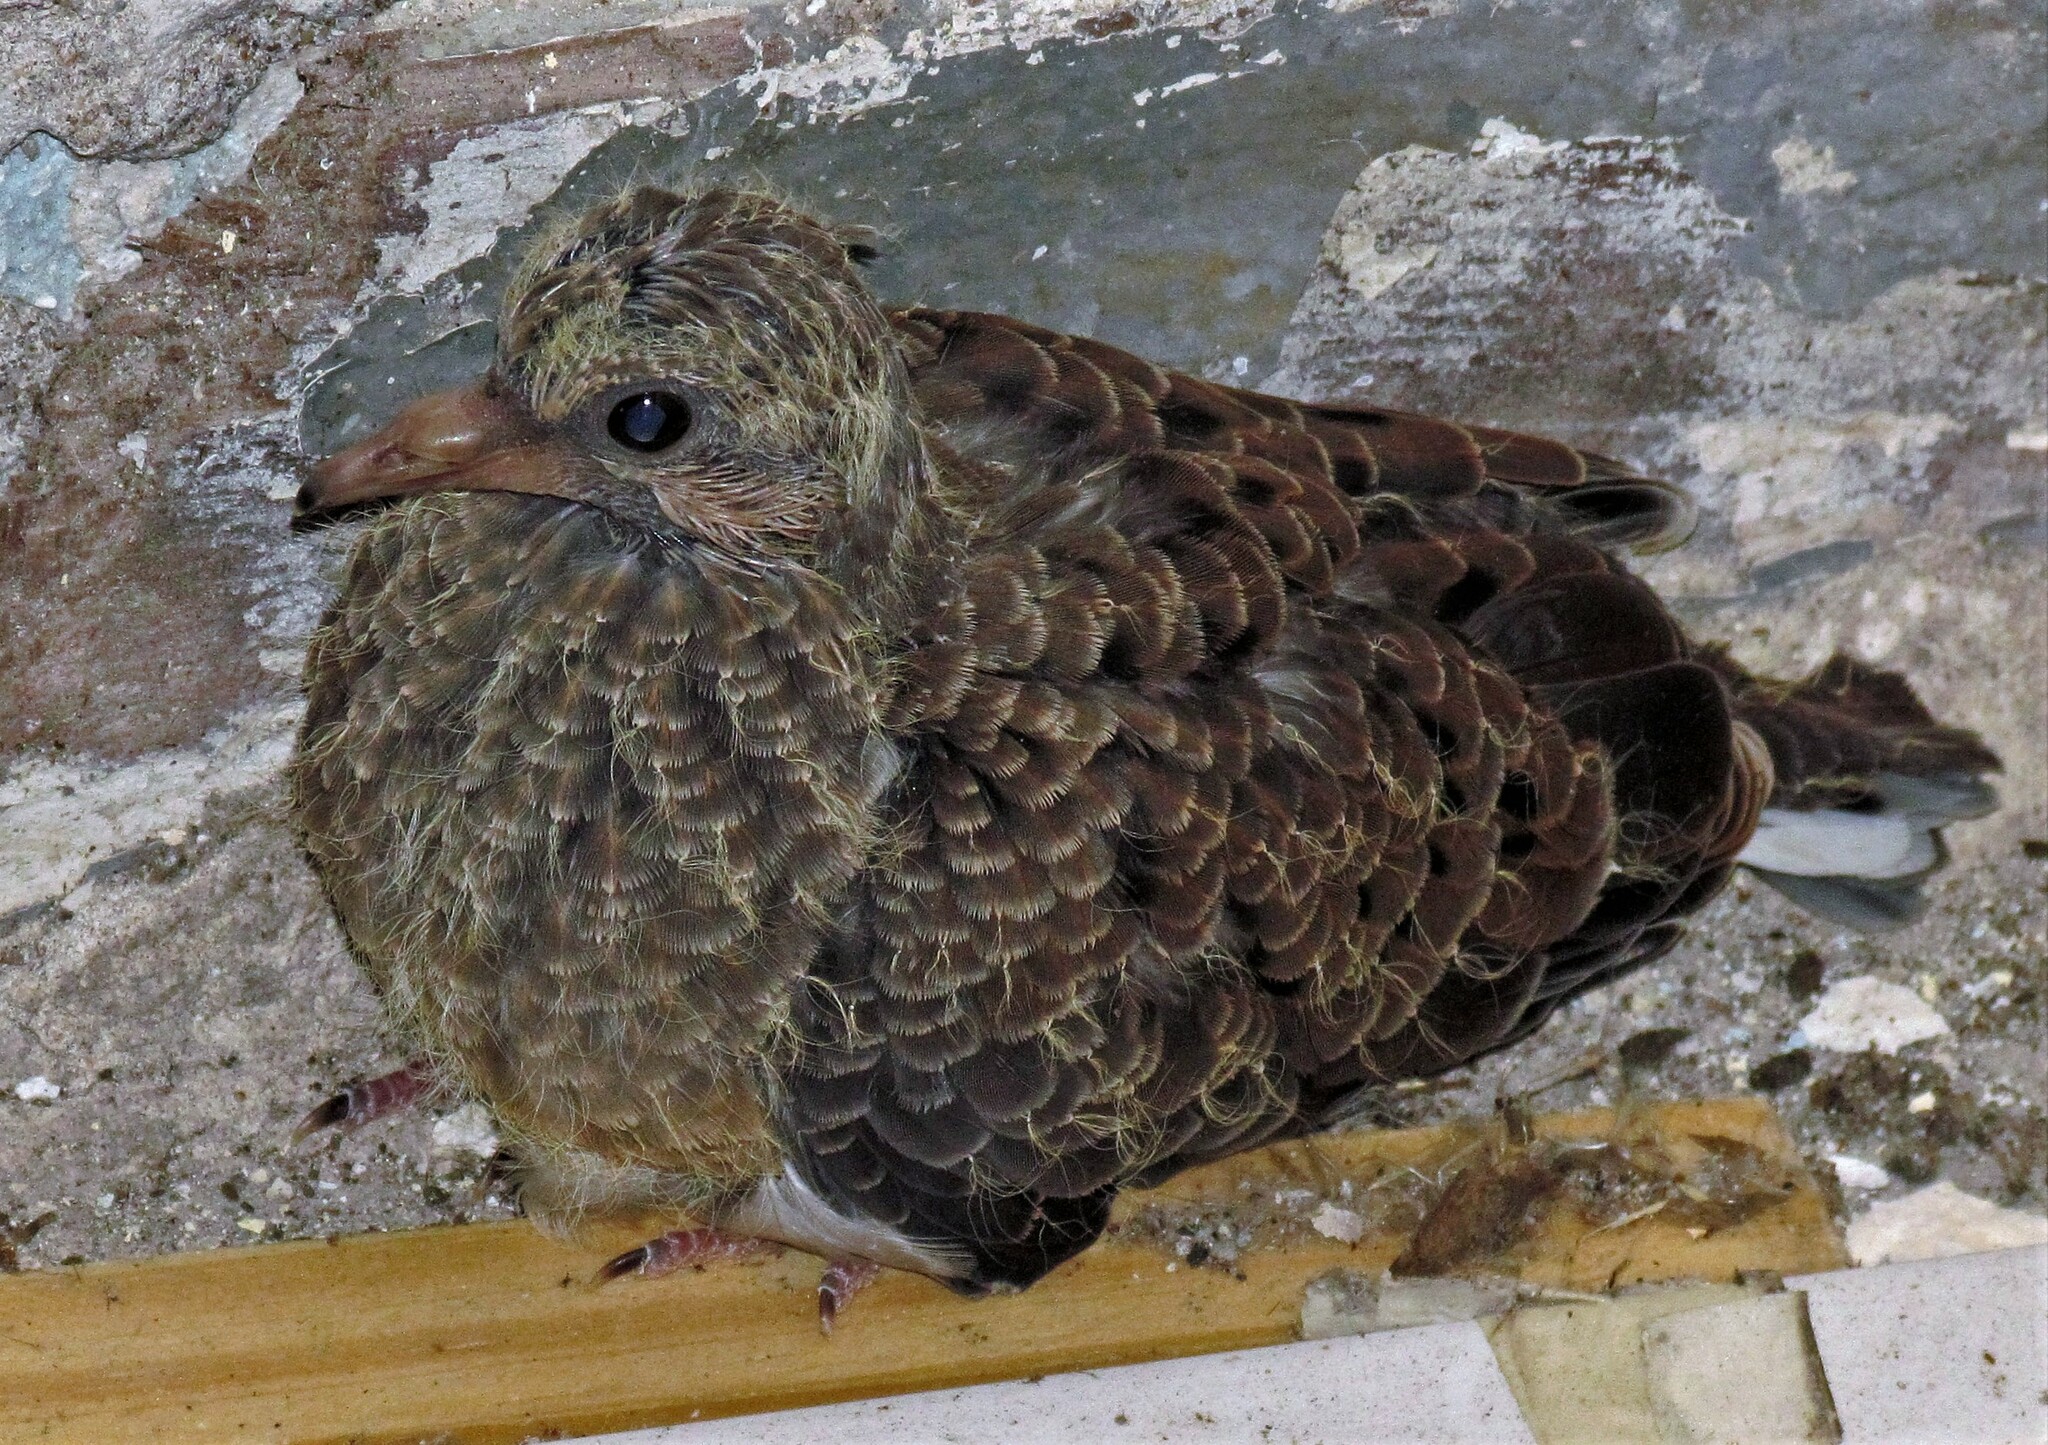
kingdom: Animalia
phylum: Chordata
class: Aves
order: Columbiformes
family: Columbidae
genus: Zenaida
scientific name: Zenaida auriculata
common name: Eared dove
